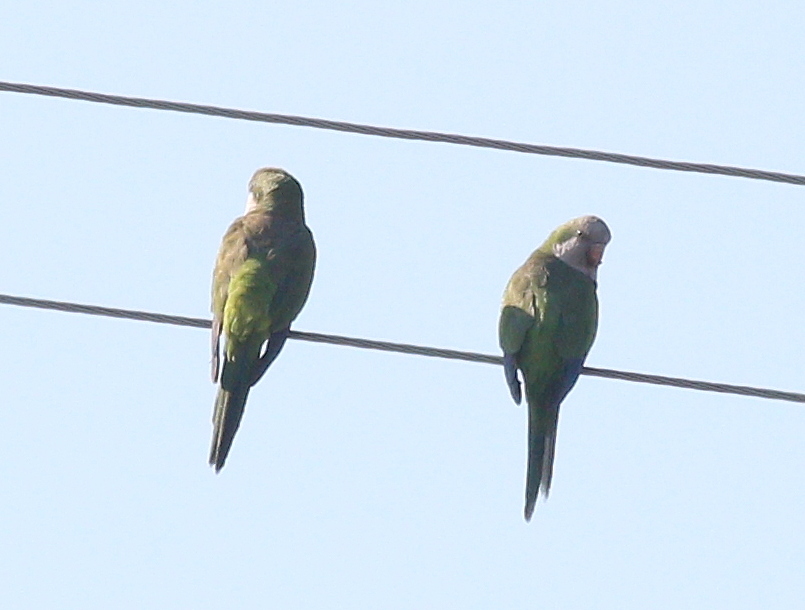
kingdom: Animalia
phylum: Chordata
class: Aves
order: Psittaciformes
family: Psittacidae
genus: Myiopsitta
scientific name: Myiopsitta monachus
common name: Monk parakeet
